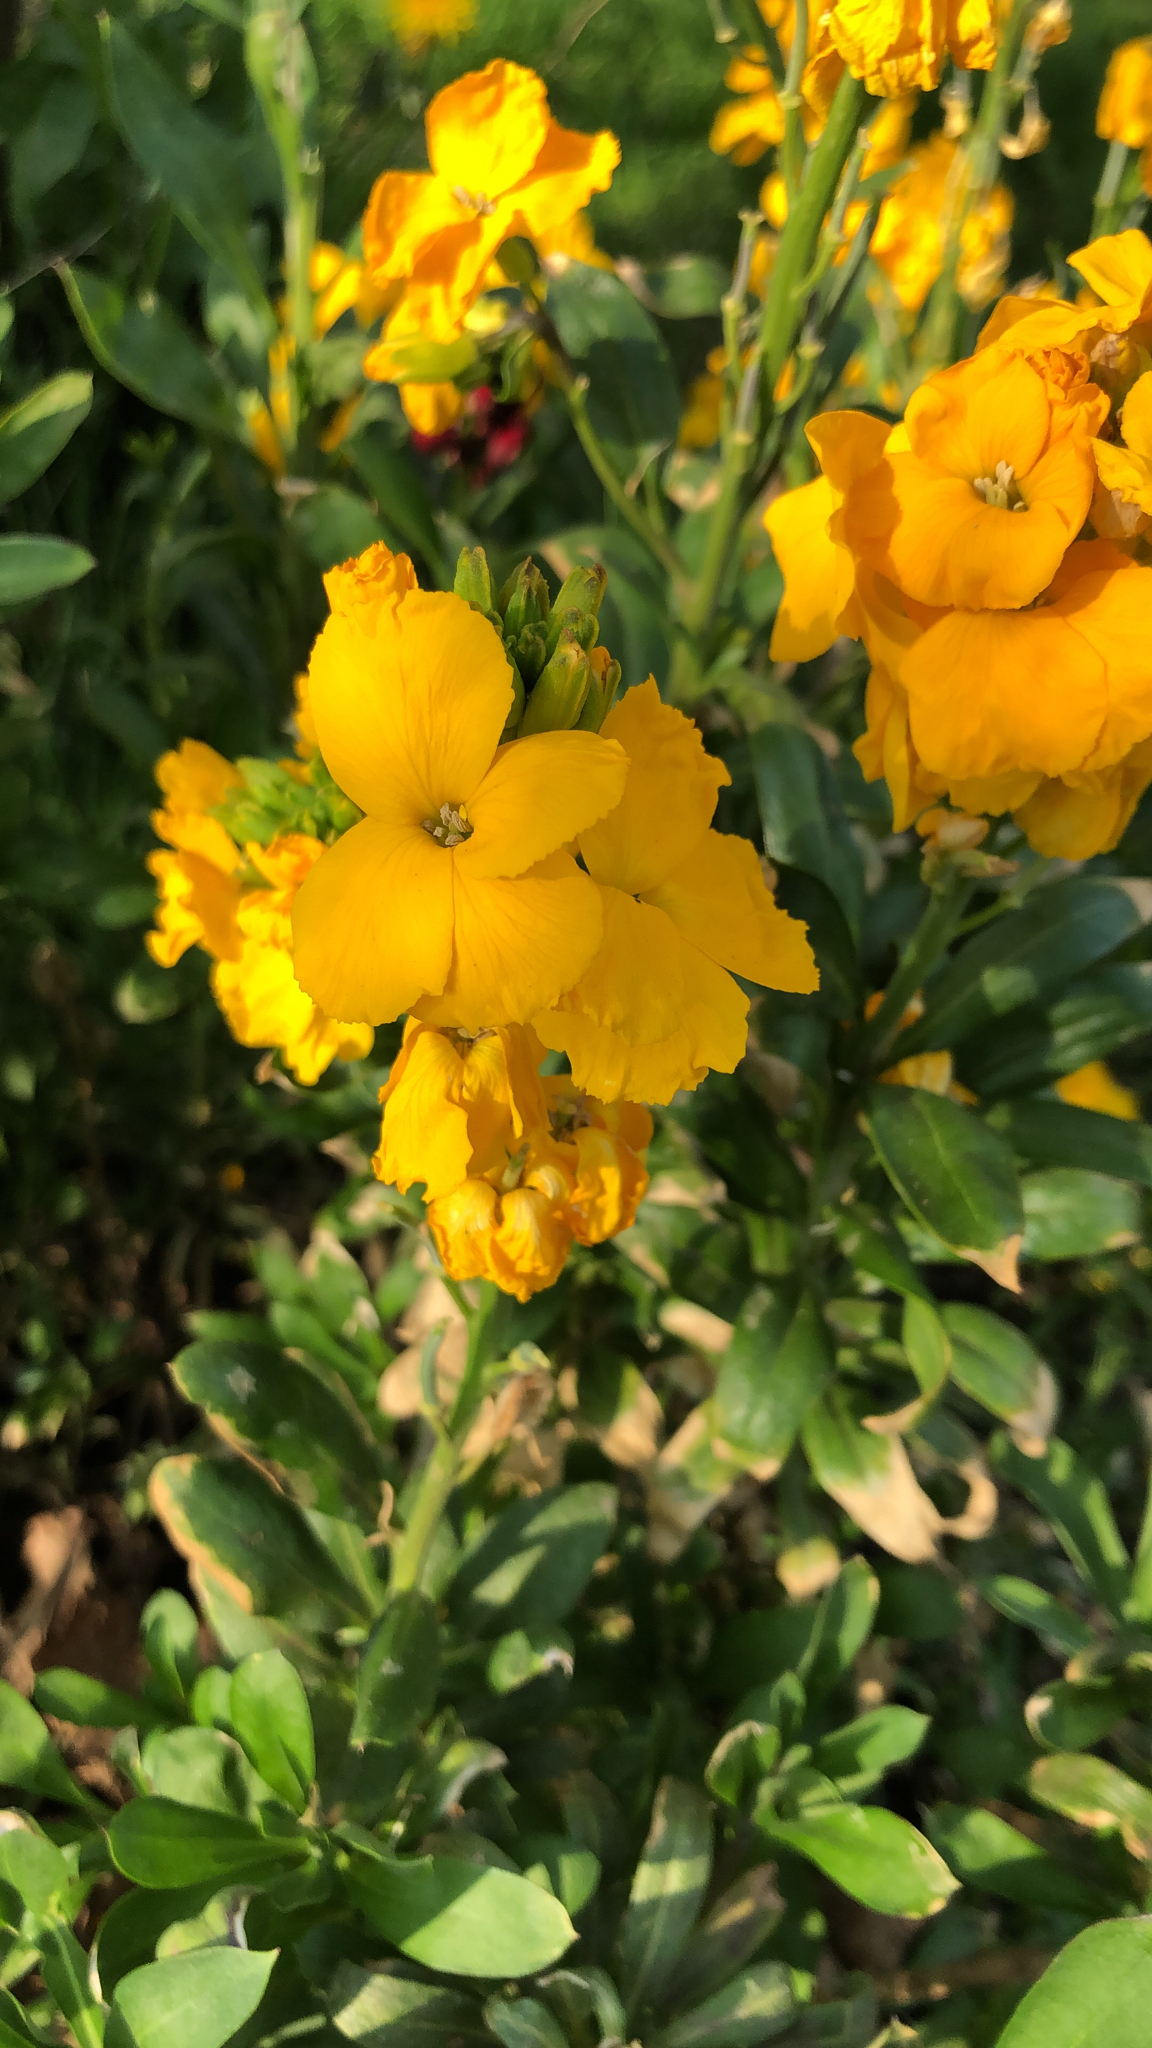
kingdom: Plantae
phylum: Tracheophyta
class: Magnoliopsida
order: Brassicales
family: Brassicaceae
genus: Erysimum
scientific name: Erysimum cheiri
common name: Wallflower
